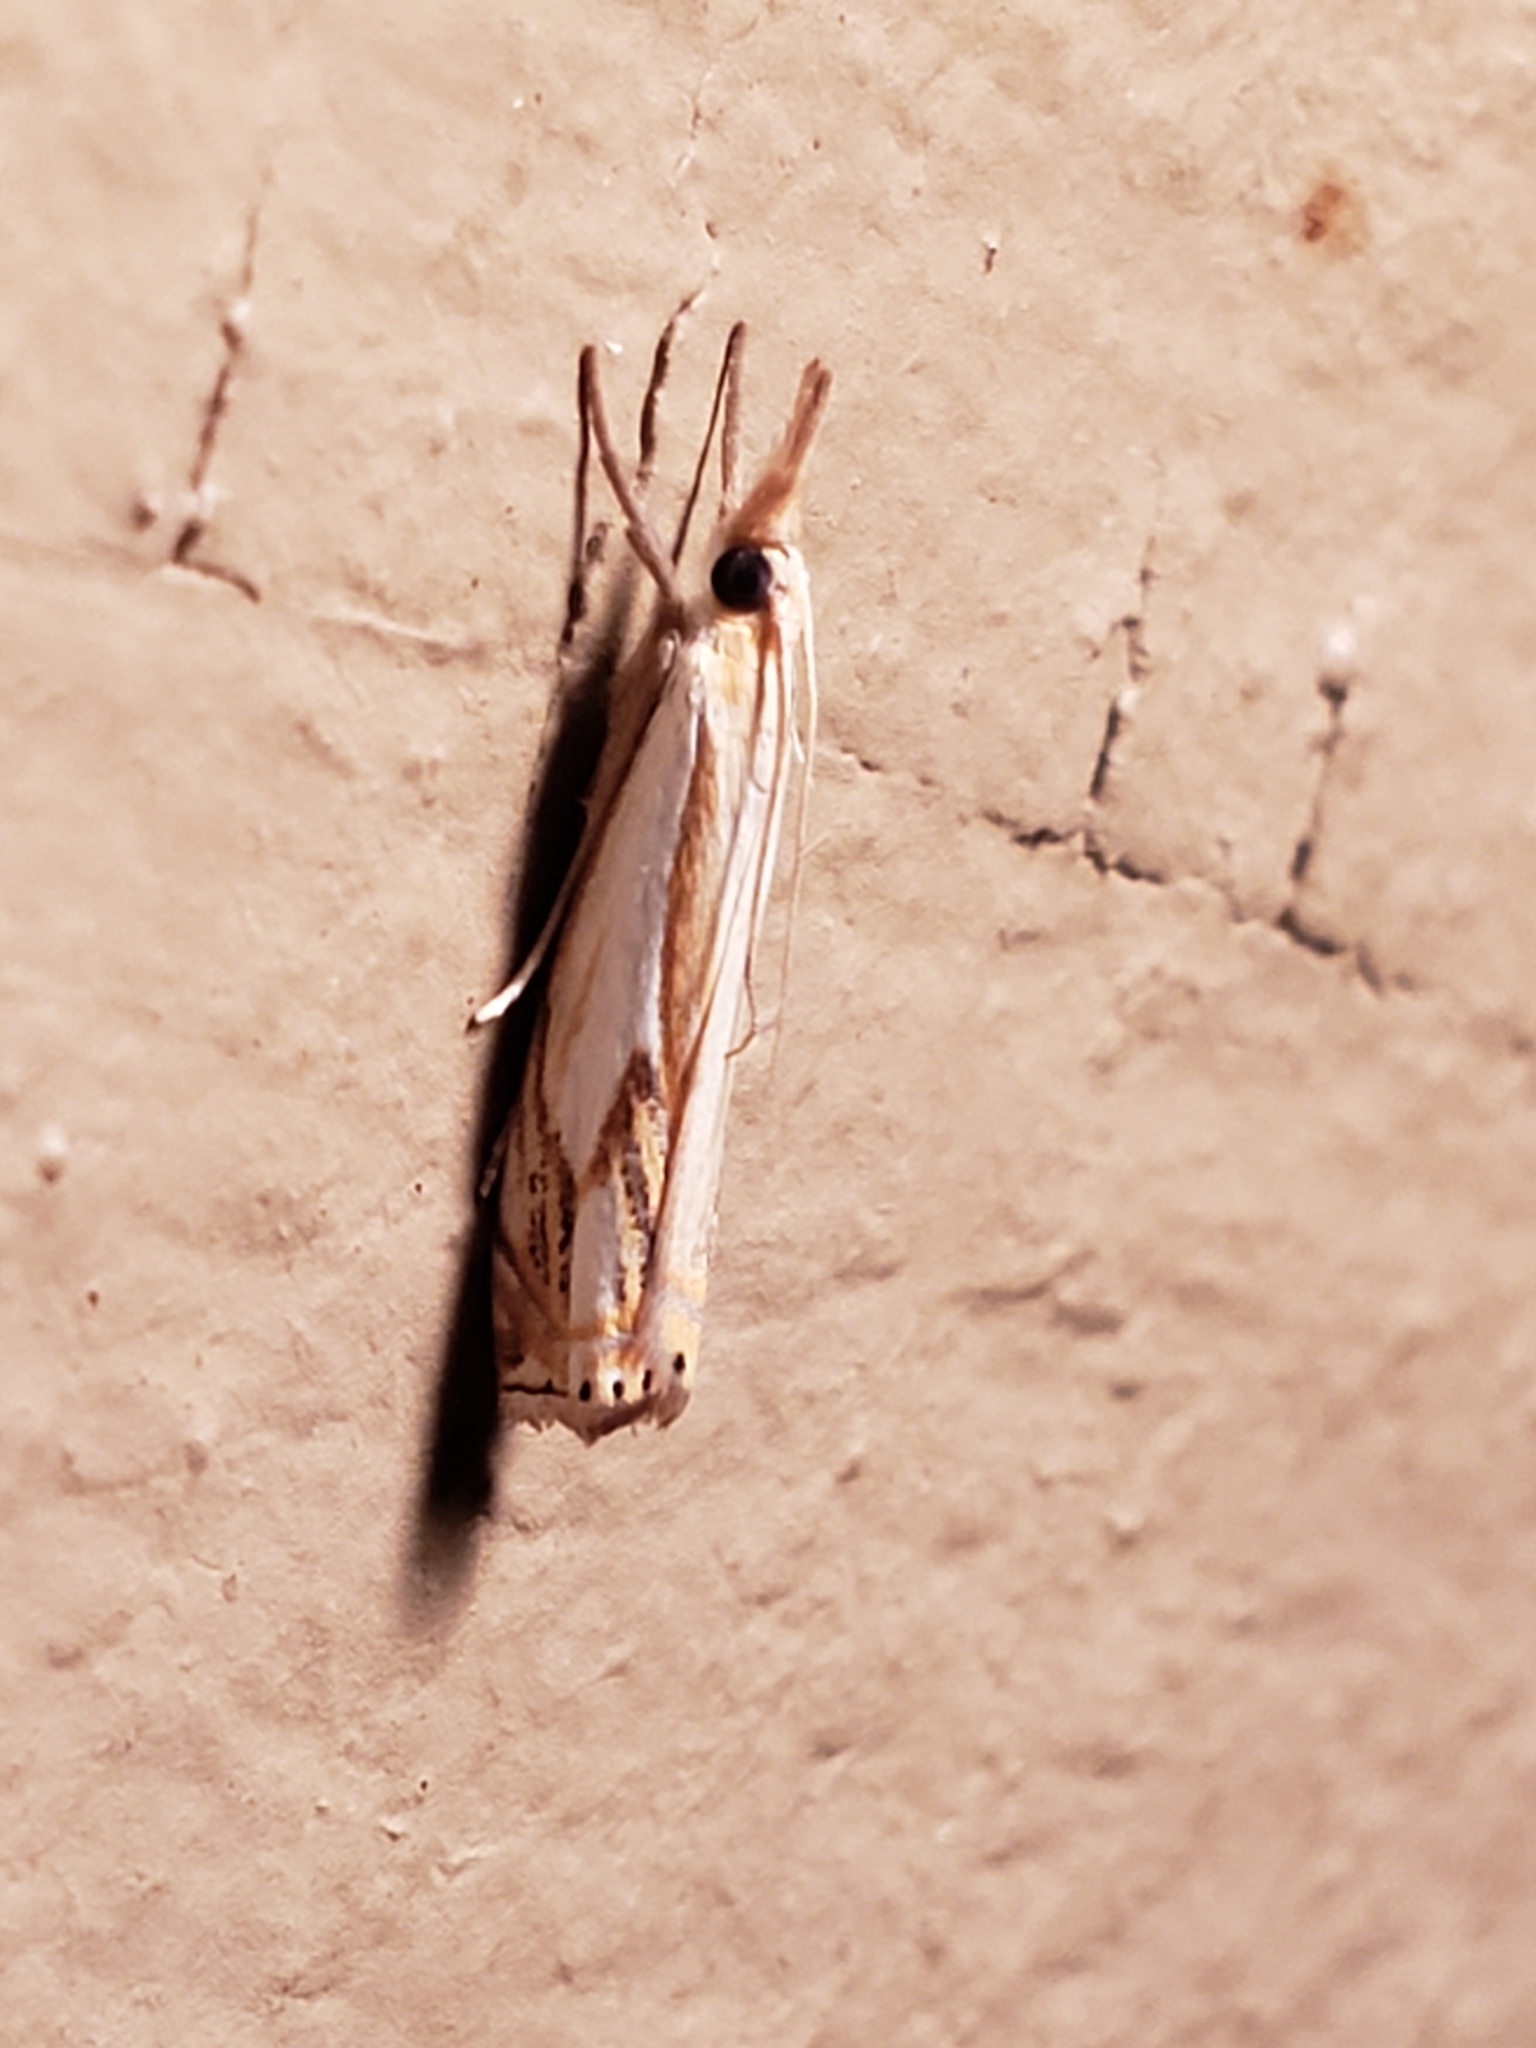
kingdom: Animalia
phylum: Arthropoda
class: Insecta
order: Lepidoptera
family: Crambidae
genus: Crambus
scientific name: Crambus agitatellus
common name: Double-banded grass-veneer
